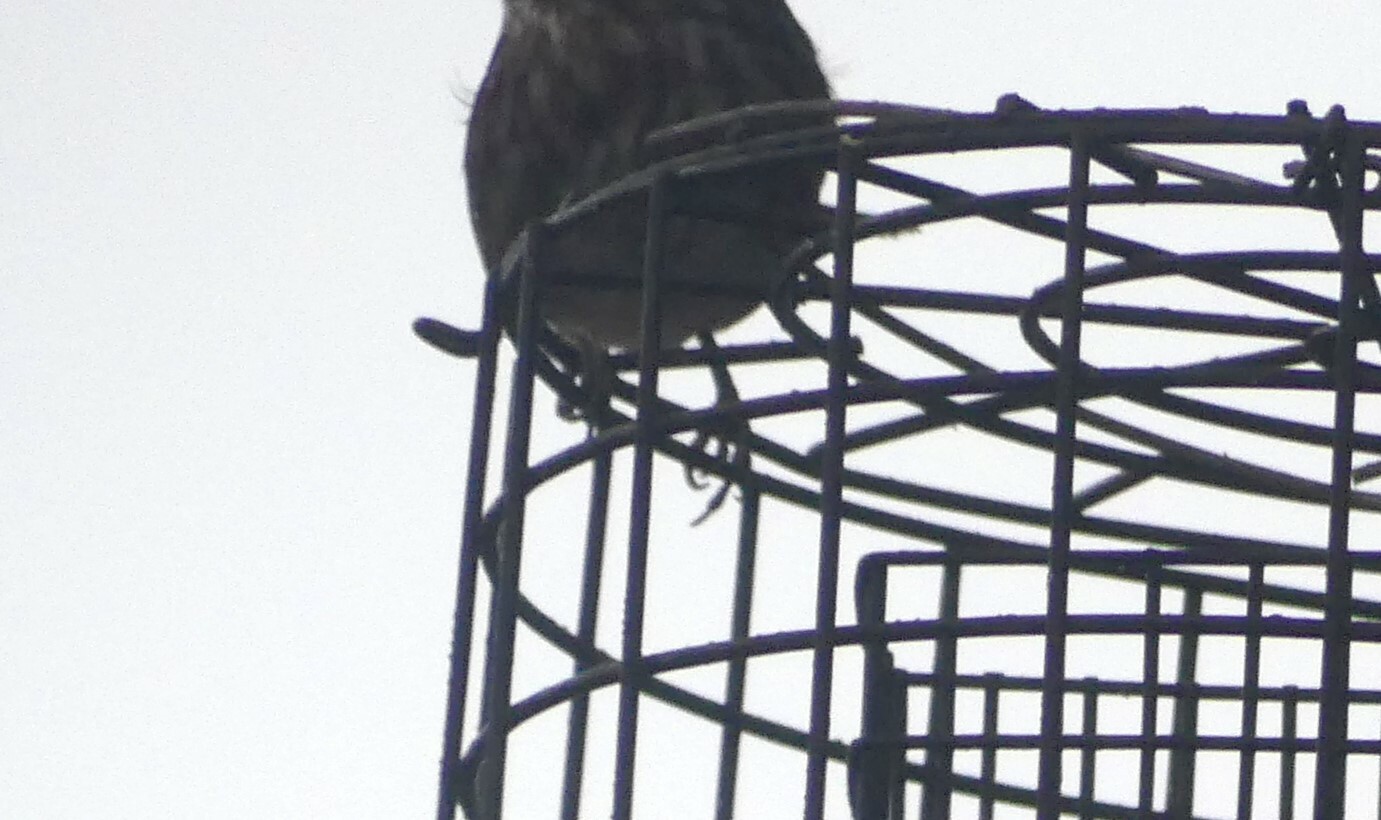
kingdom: Animalia
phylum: Chordata
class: Aves
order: Passeriformes
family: Passerellidae
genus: Melospiza
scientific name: Melospiza melodia
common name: Song sparrow
